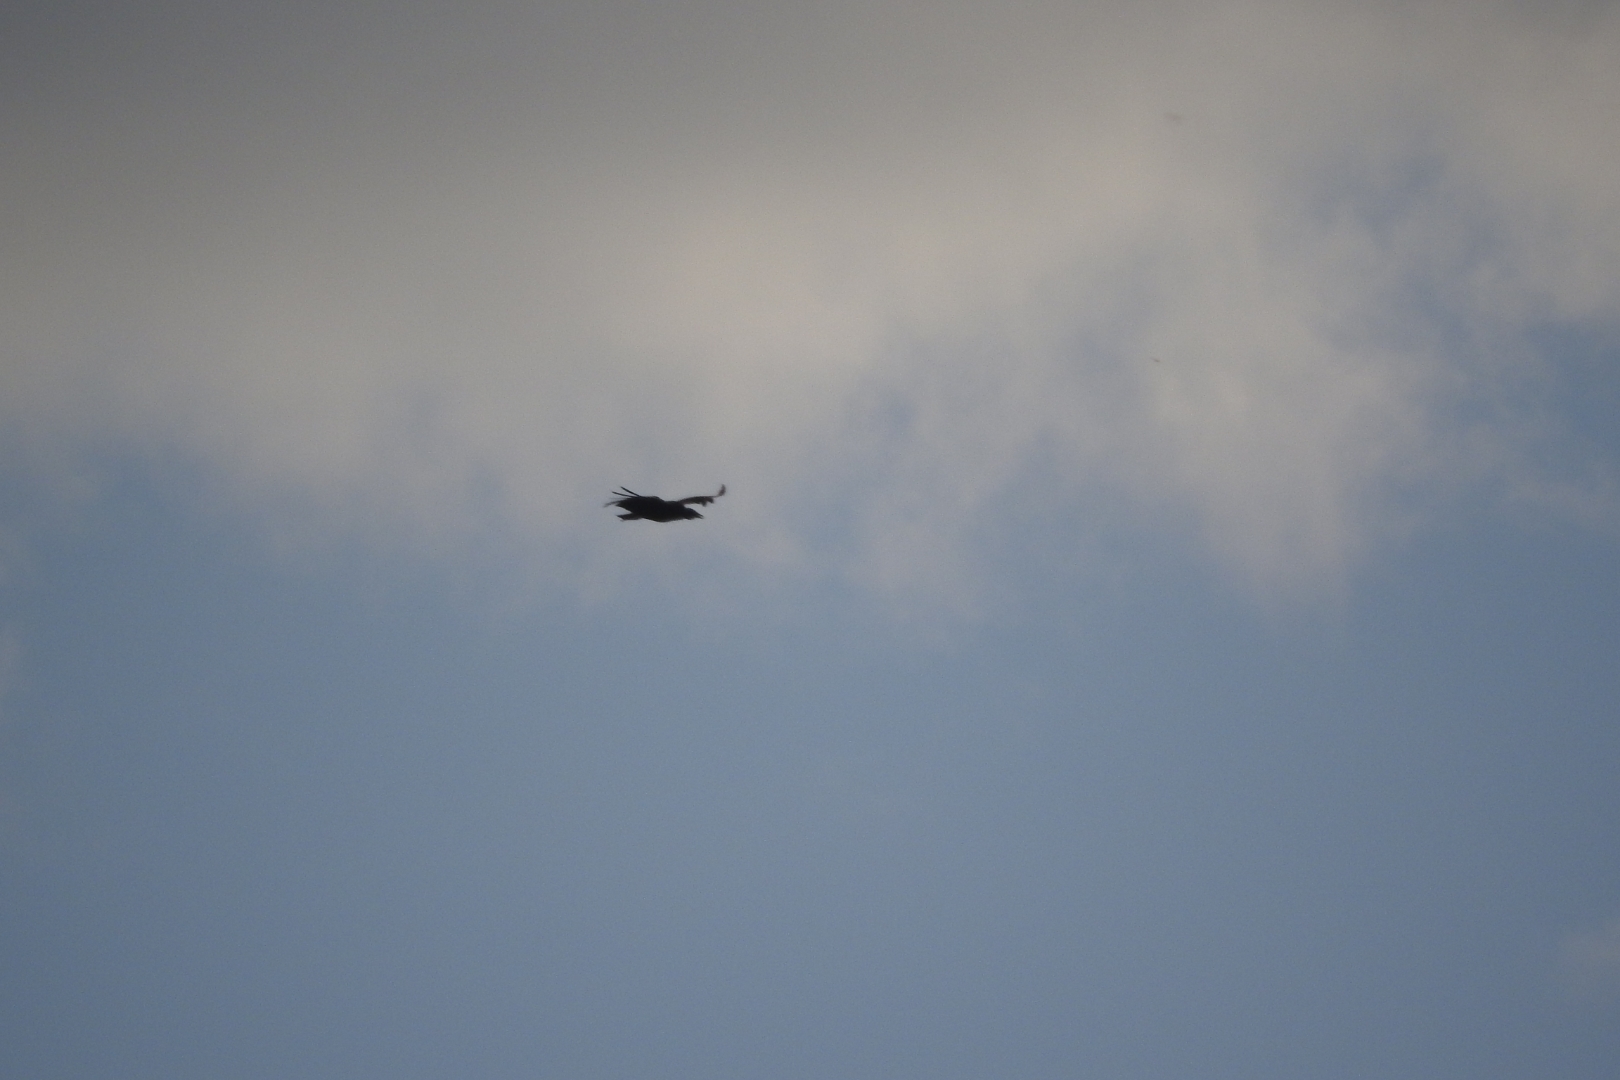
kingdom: Animalia
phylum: Chordata
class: Aves
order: Accipitriformes
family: Cathartidae
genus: Coragyps
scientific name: Coragyps atratus
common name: Black vulture
